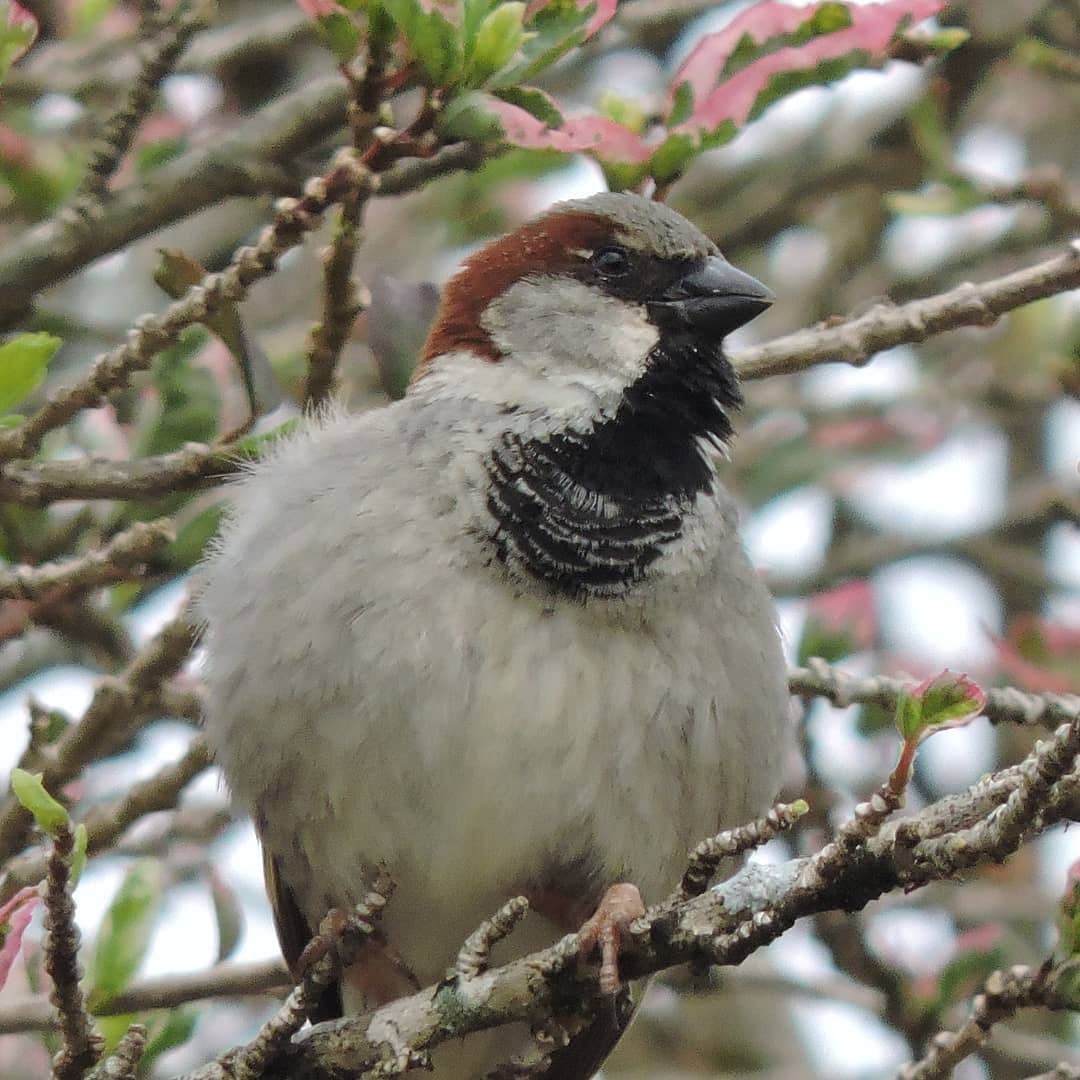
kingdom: Animalia
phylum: Chordata
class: Aves
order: Passeriformes
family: Passeridae
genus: Passer
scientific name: Passer domesticus
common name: House sparrow
